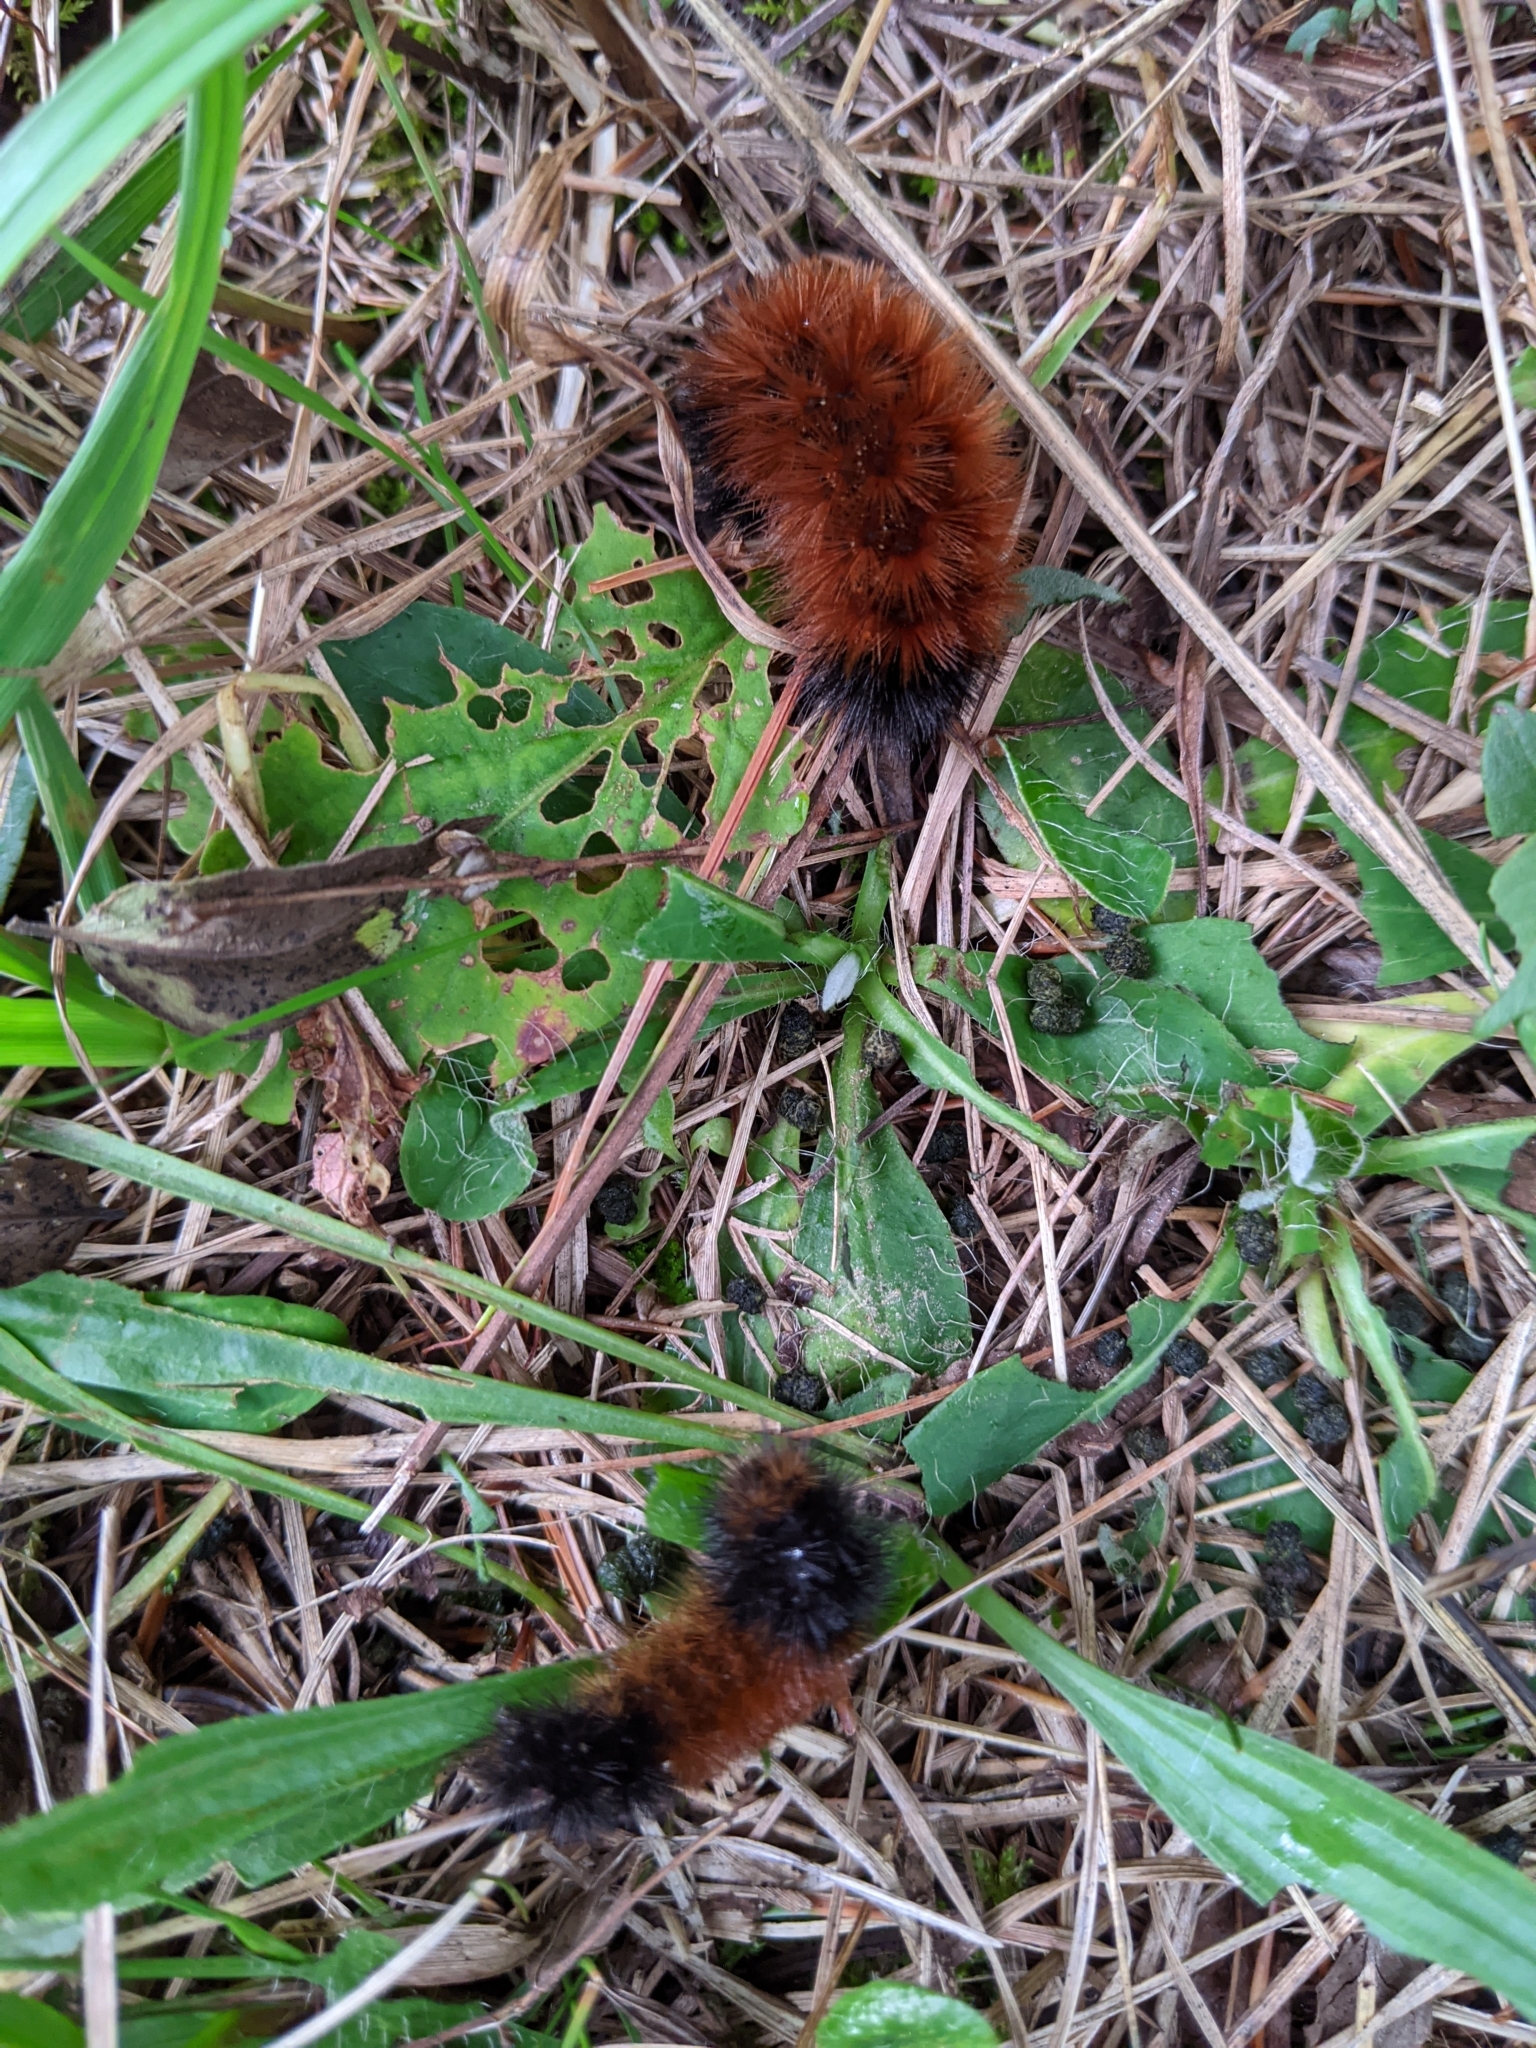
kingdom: Animalia
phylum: Arthropoda
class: Insecta
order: Lepidoptera
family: Erebidae
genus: Pyrrharctia
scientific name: Pyrrharctia isabella
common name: Isabella tiger moth
